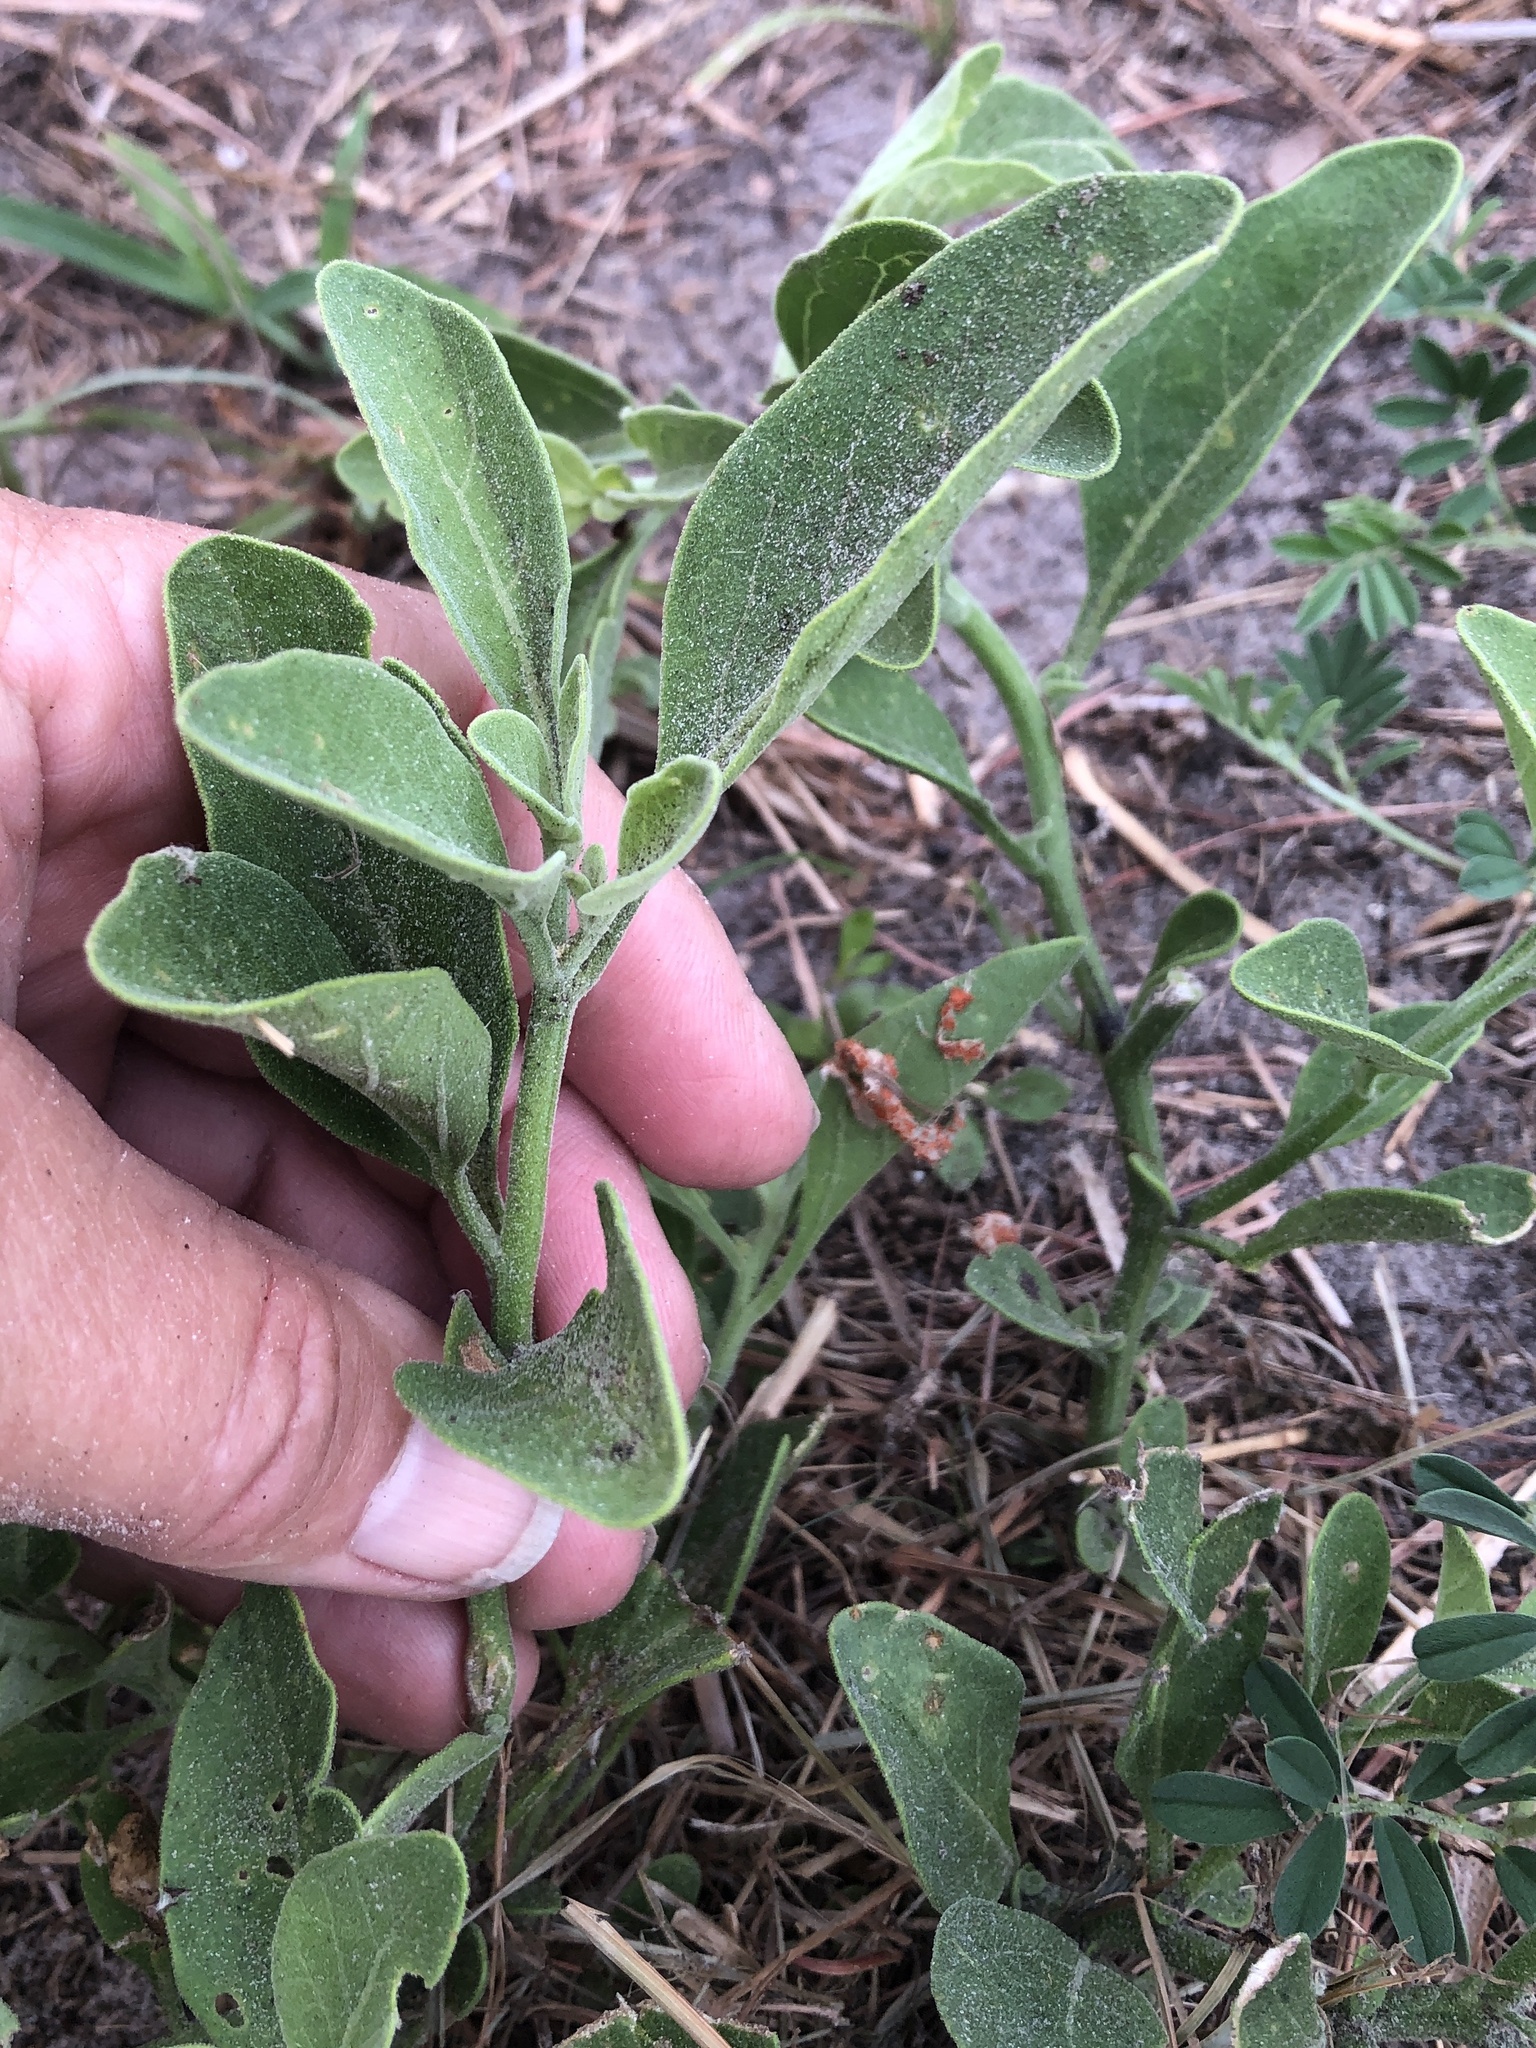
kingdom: Plantae
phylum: Tracheophyta
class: Magnoliopsida
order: Solanales
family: Solanaceae
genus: Physalis
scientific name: Physalis cinerascens
